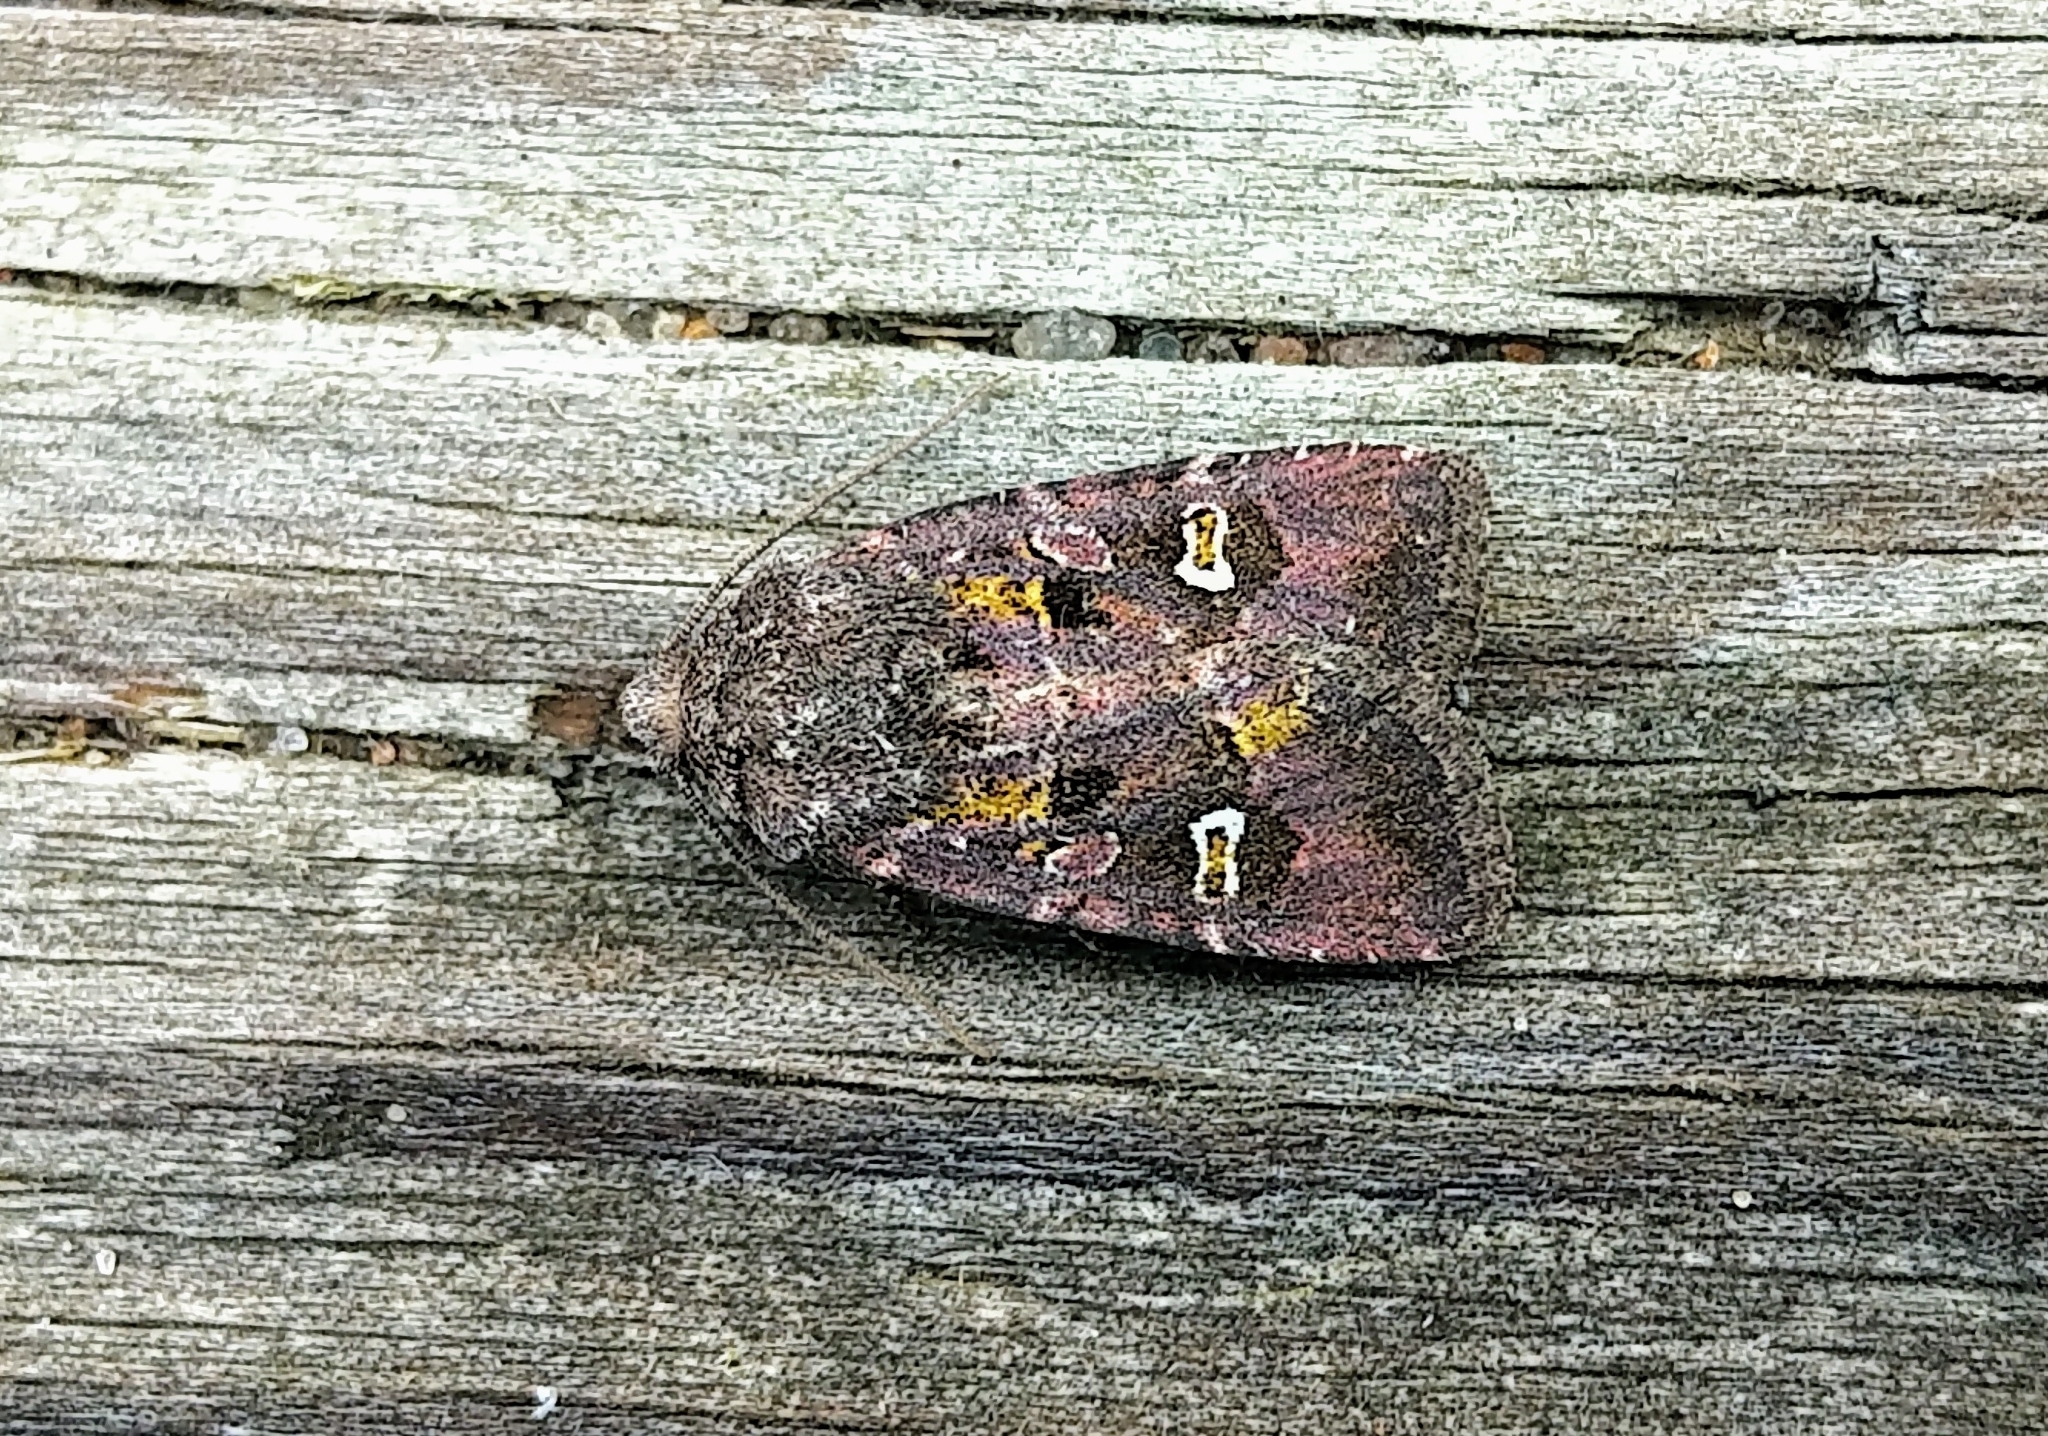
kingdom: Animalia
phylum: Arthropoda
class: Insecta
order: Lepidoptera
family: Noctuidae
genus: Lacinipolia
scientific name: Lacinipolia renigera
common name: Kidney-spotted minor
